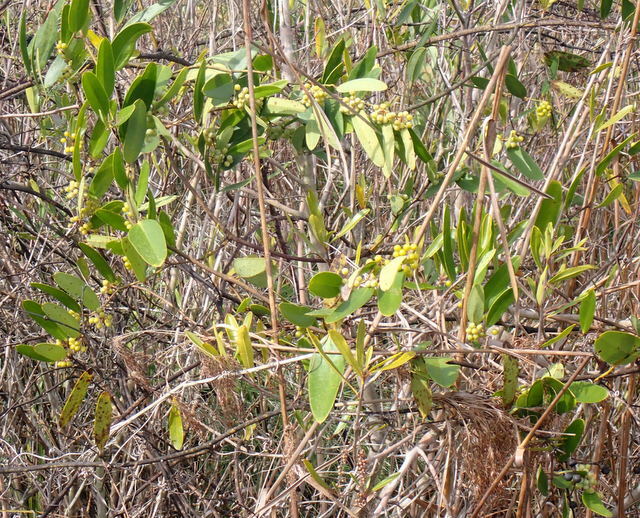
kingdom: Plantae
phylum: Tracheophyta
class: Liliopsida
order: Liliales
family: Smilacaceae
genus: Smilax
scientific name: Smilax laurifolia
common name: Bamboovine
